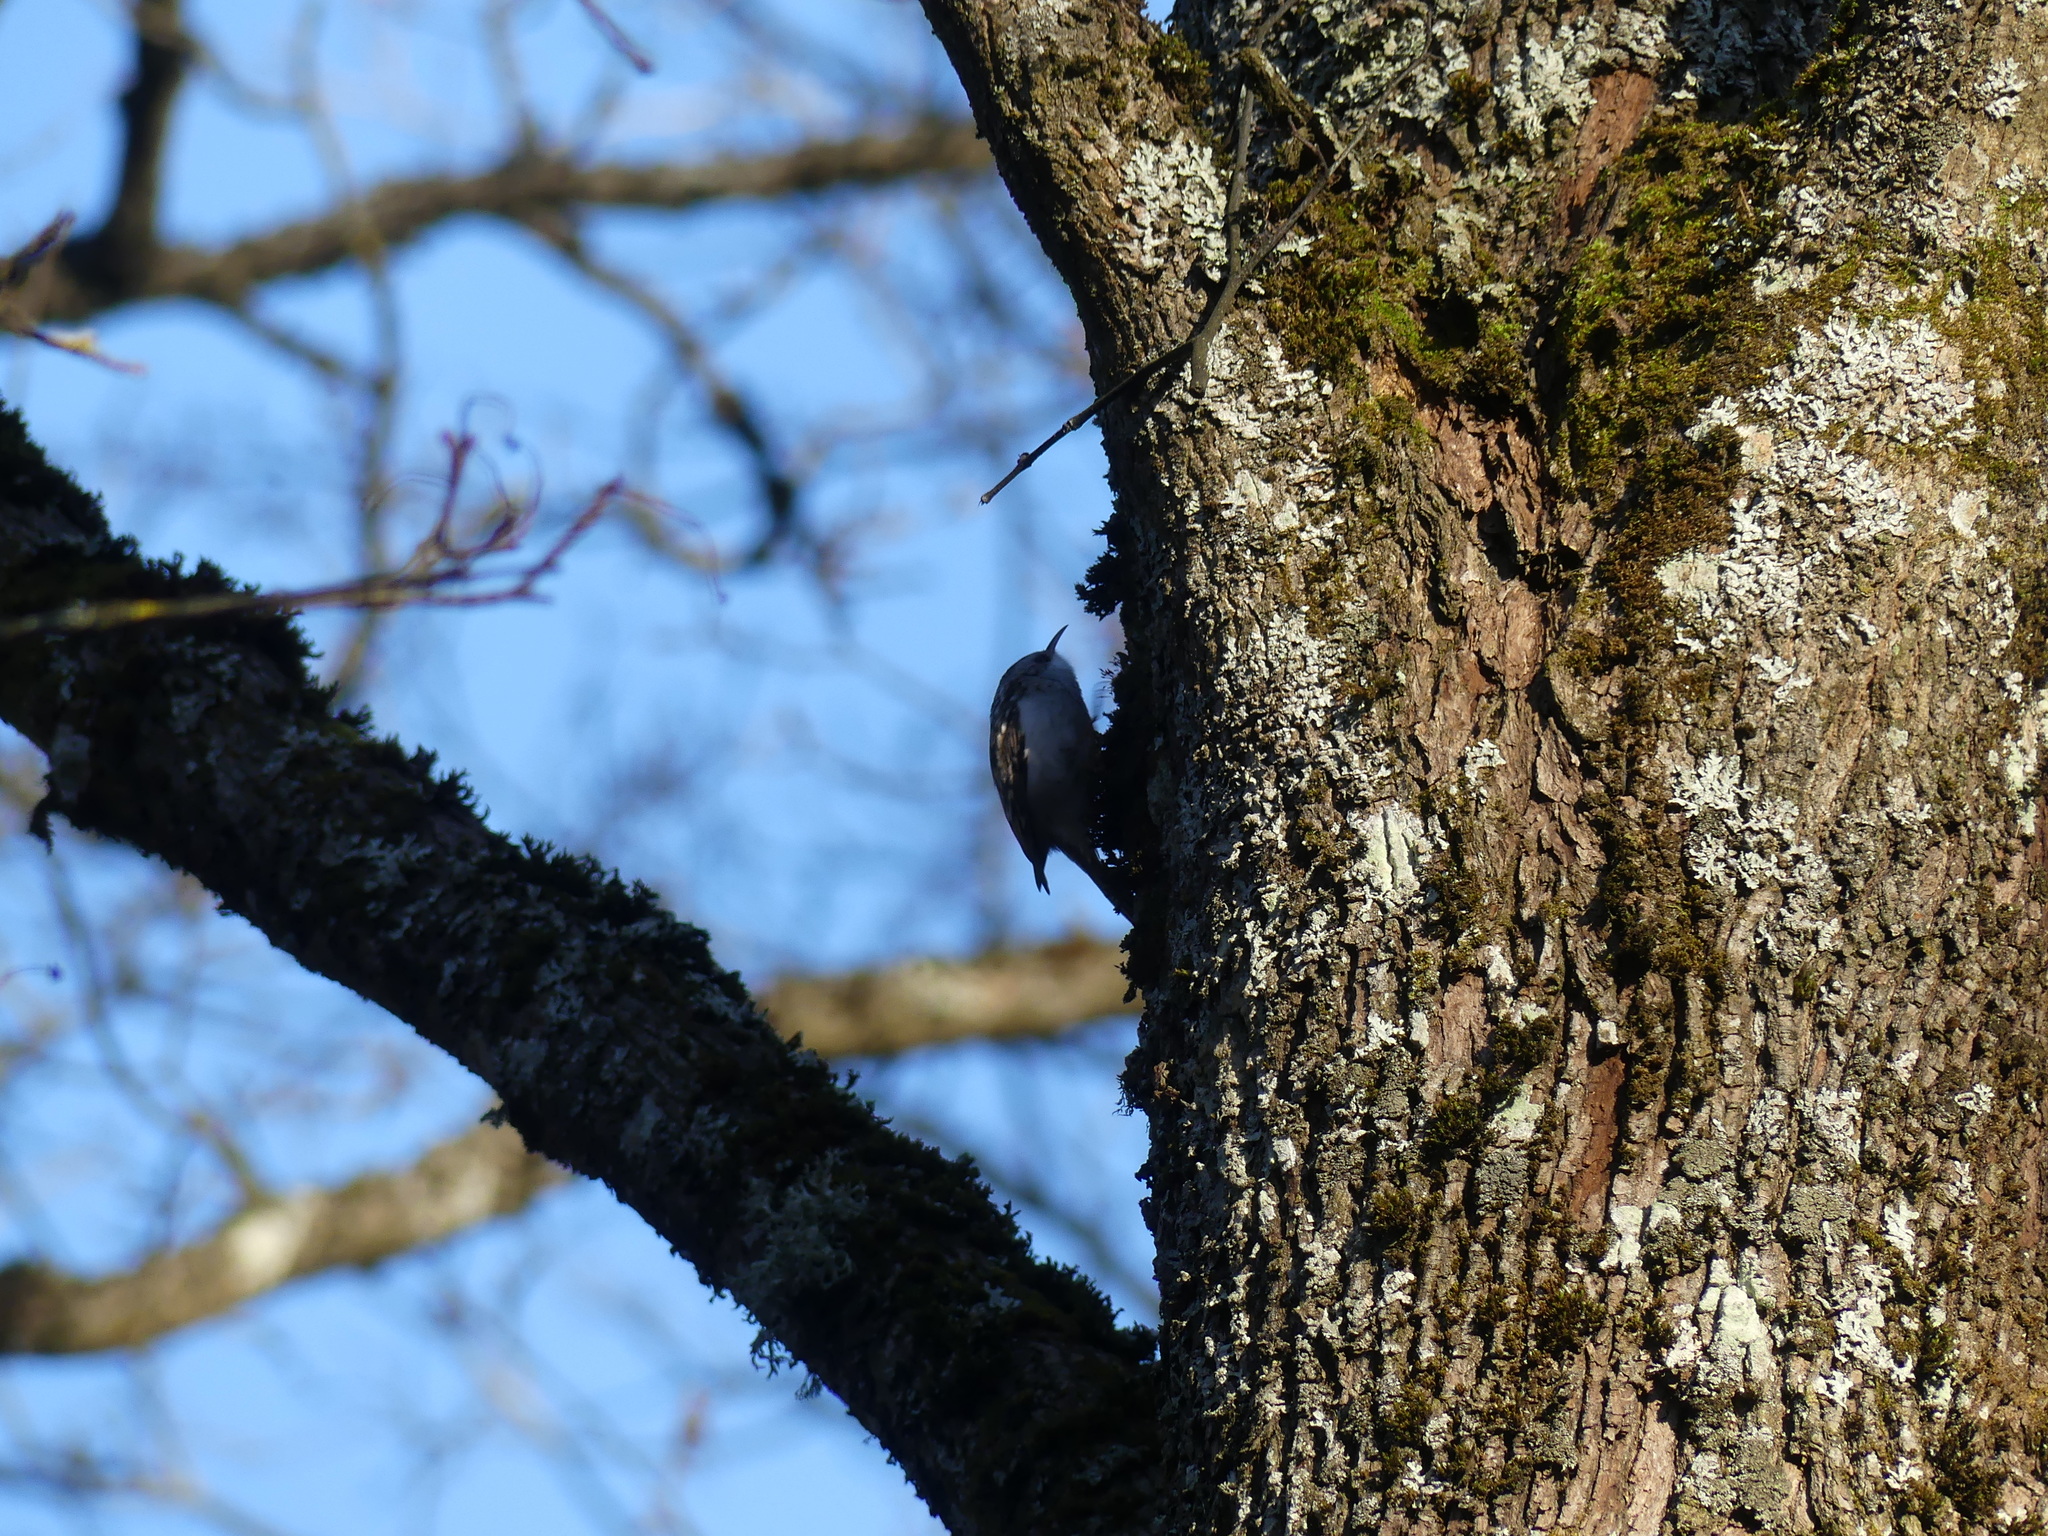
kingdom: Animalia
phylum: Chordata
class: Aves
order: Passeriformes
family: Certhiidae
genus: Certhia
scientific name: Certhia familiaris
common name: Eurasian treecreeper
